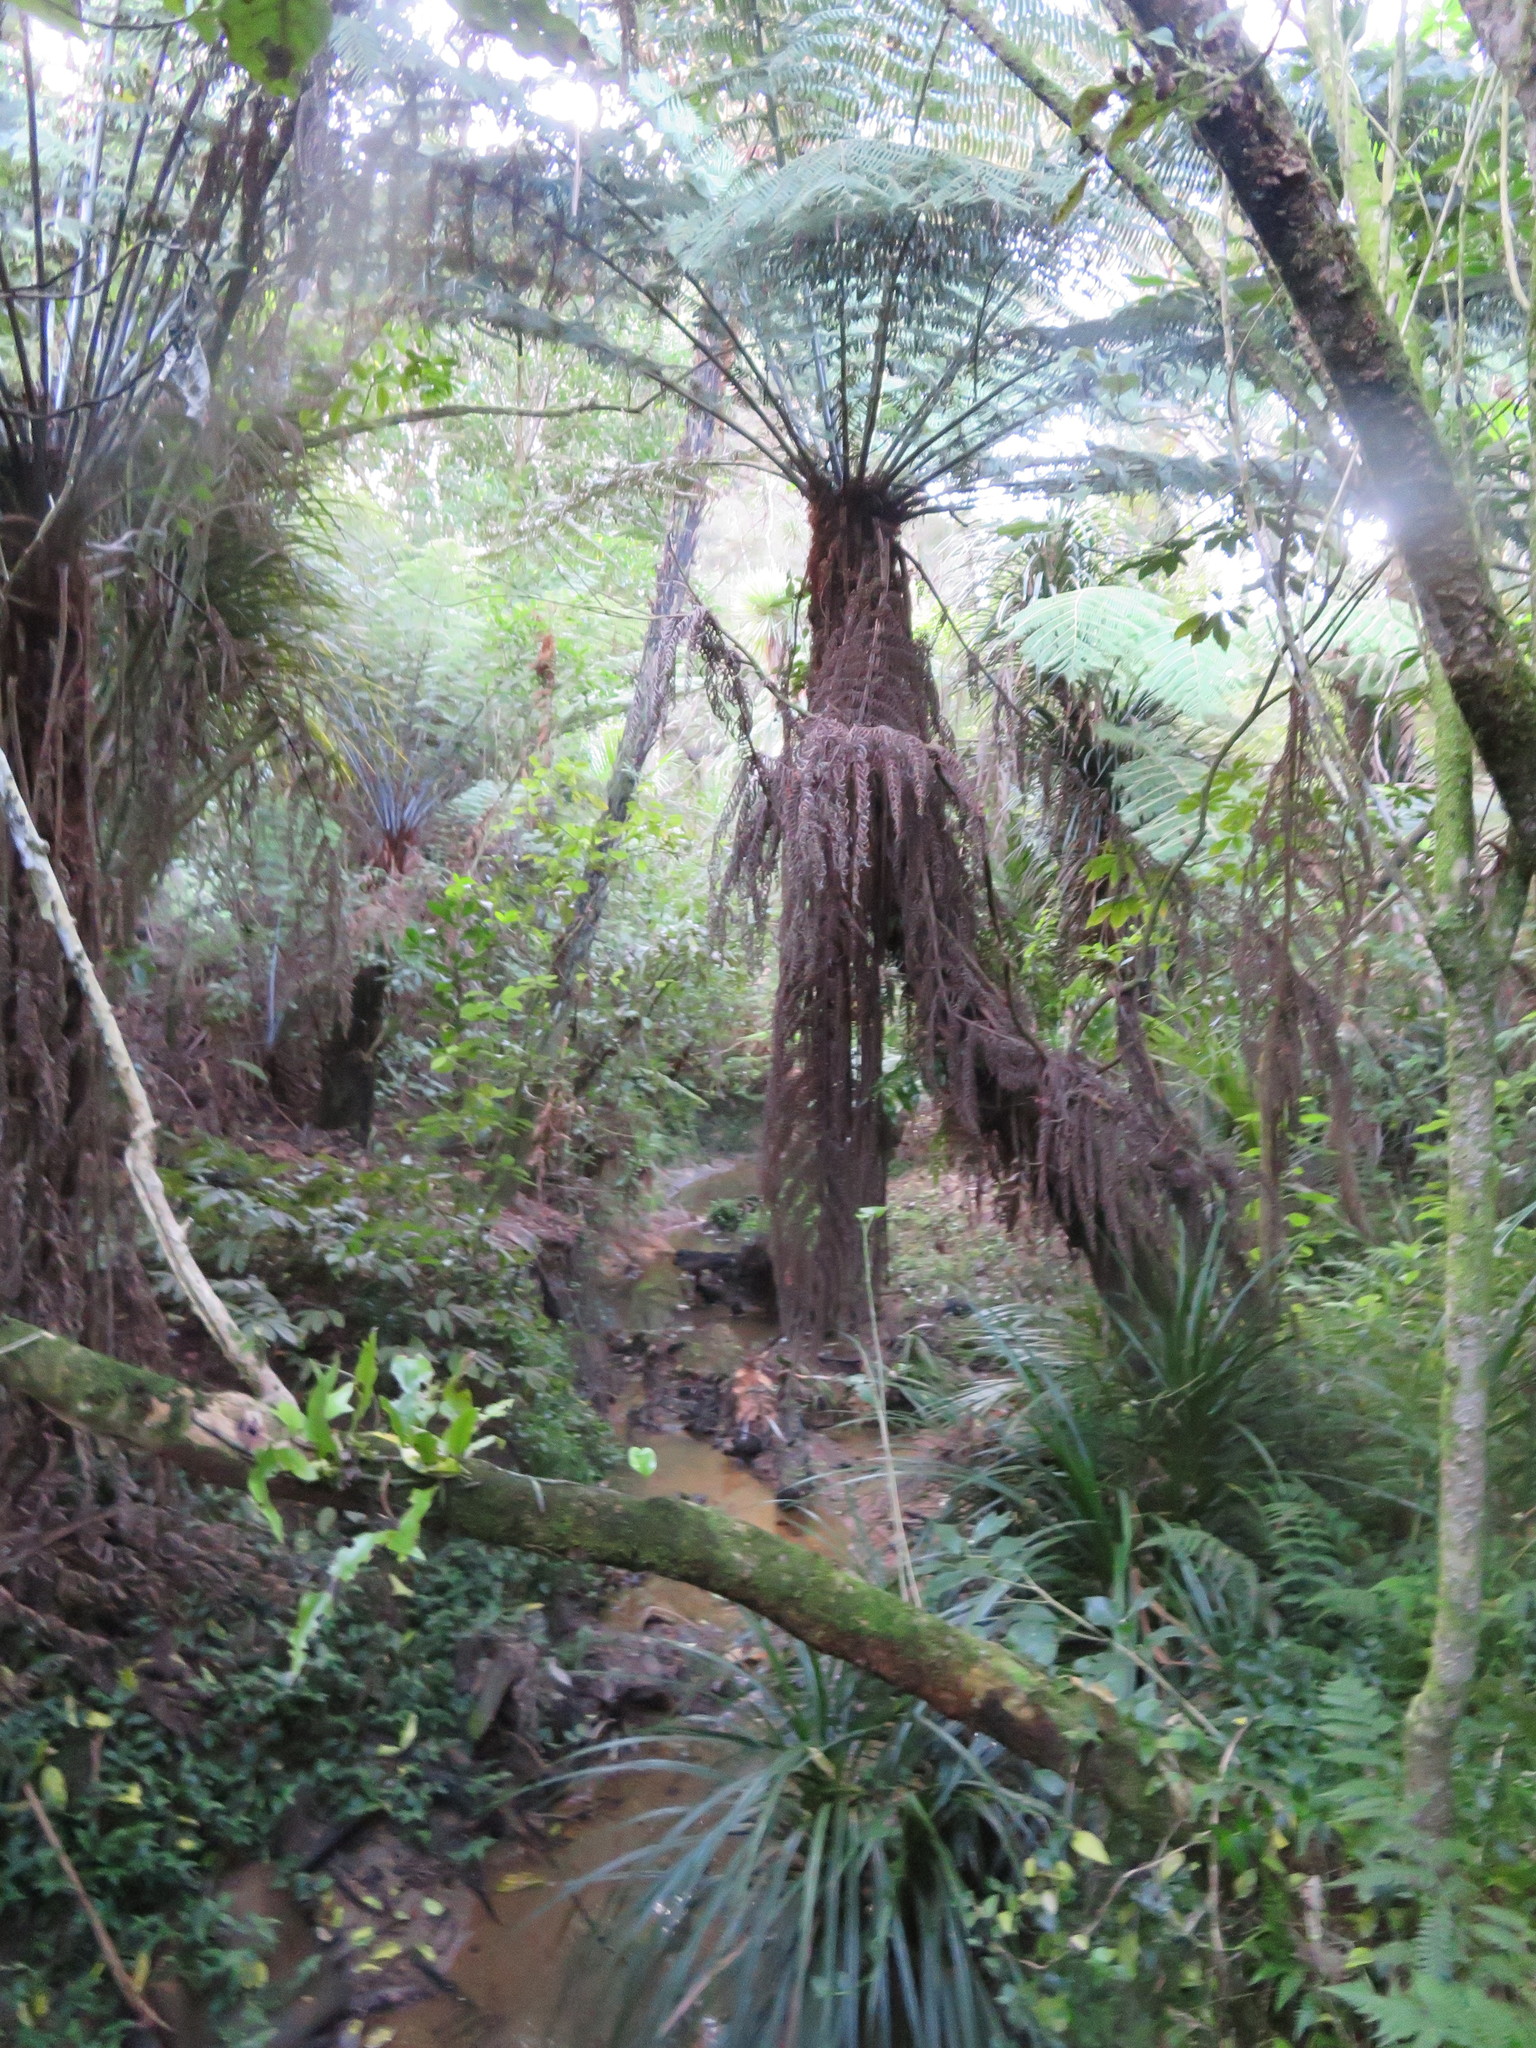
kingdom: Plantae
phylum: Tracheophyta
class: Polypodiopsida
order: Cyatheales
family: Cyatheaceae
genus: Alsophila
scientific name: Alsophila dealbata
